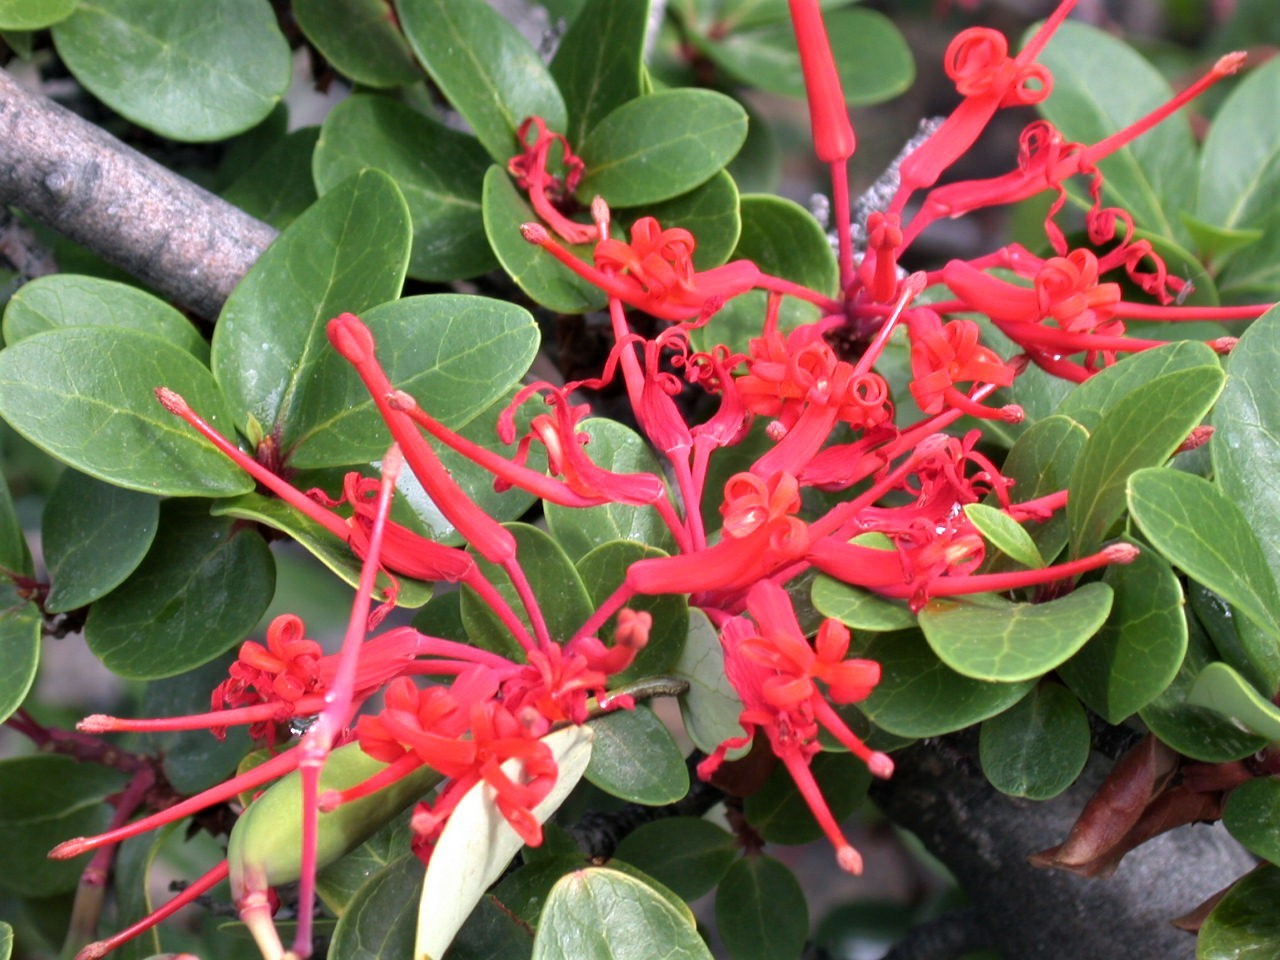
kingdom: Plantae
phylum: Tracheophyta
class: Magnoliopsida
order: Proteales
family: Proteaceae
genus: Embothrium
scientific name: Embothrium coccineum
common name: Chilean firebush
